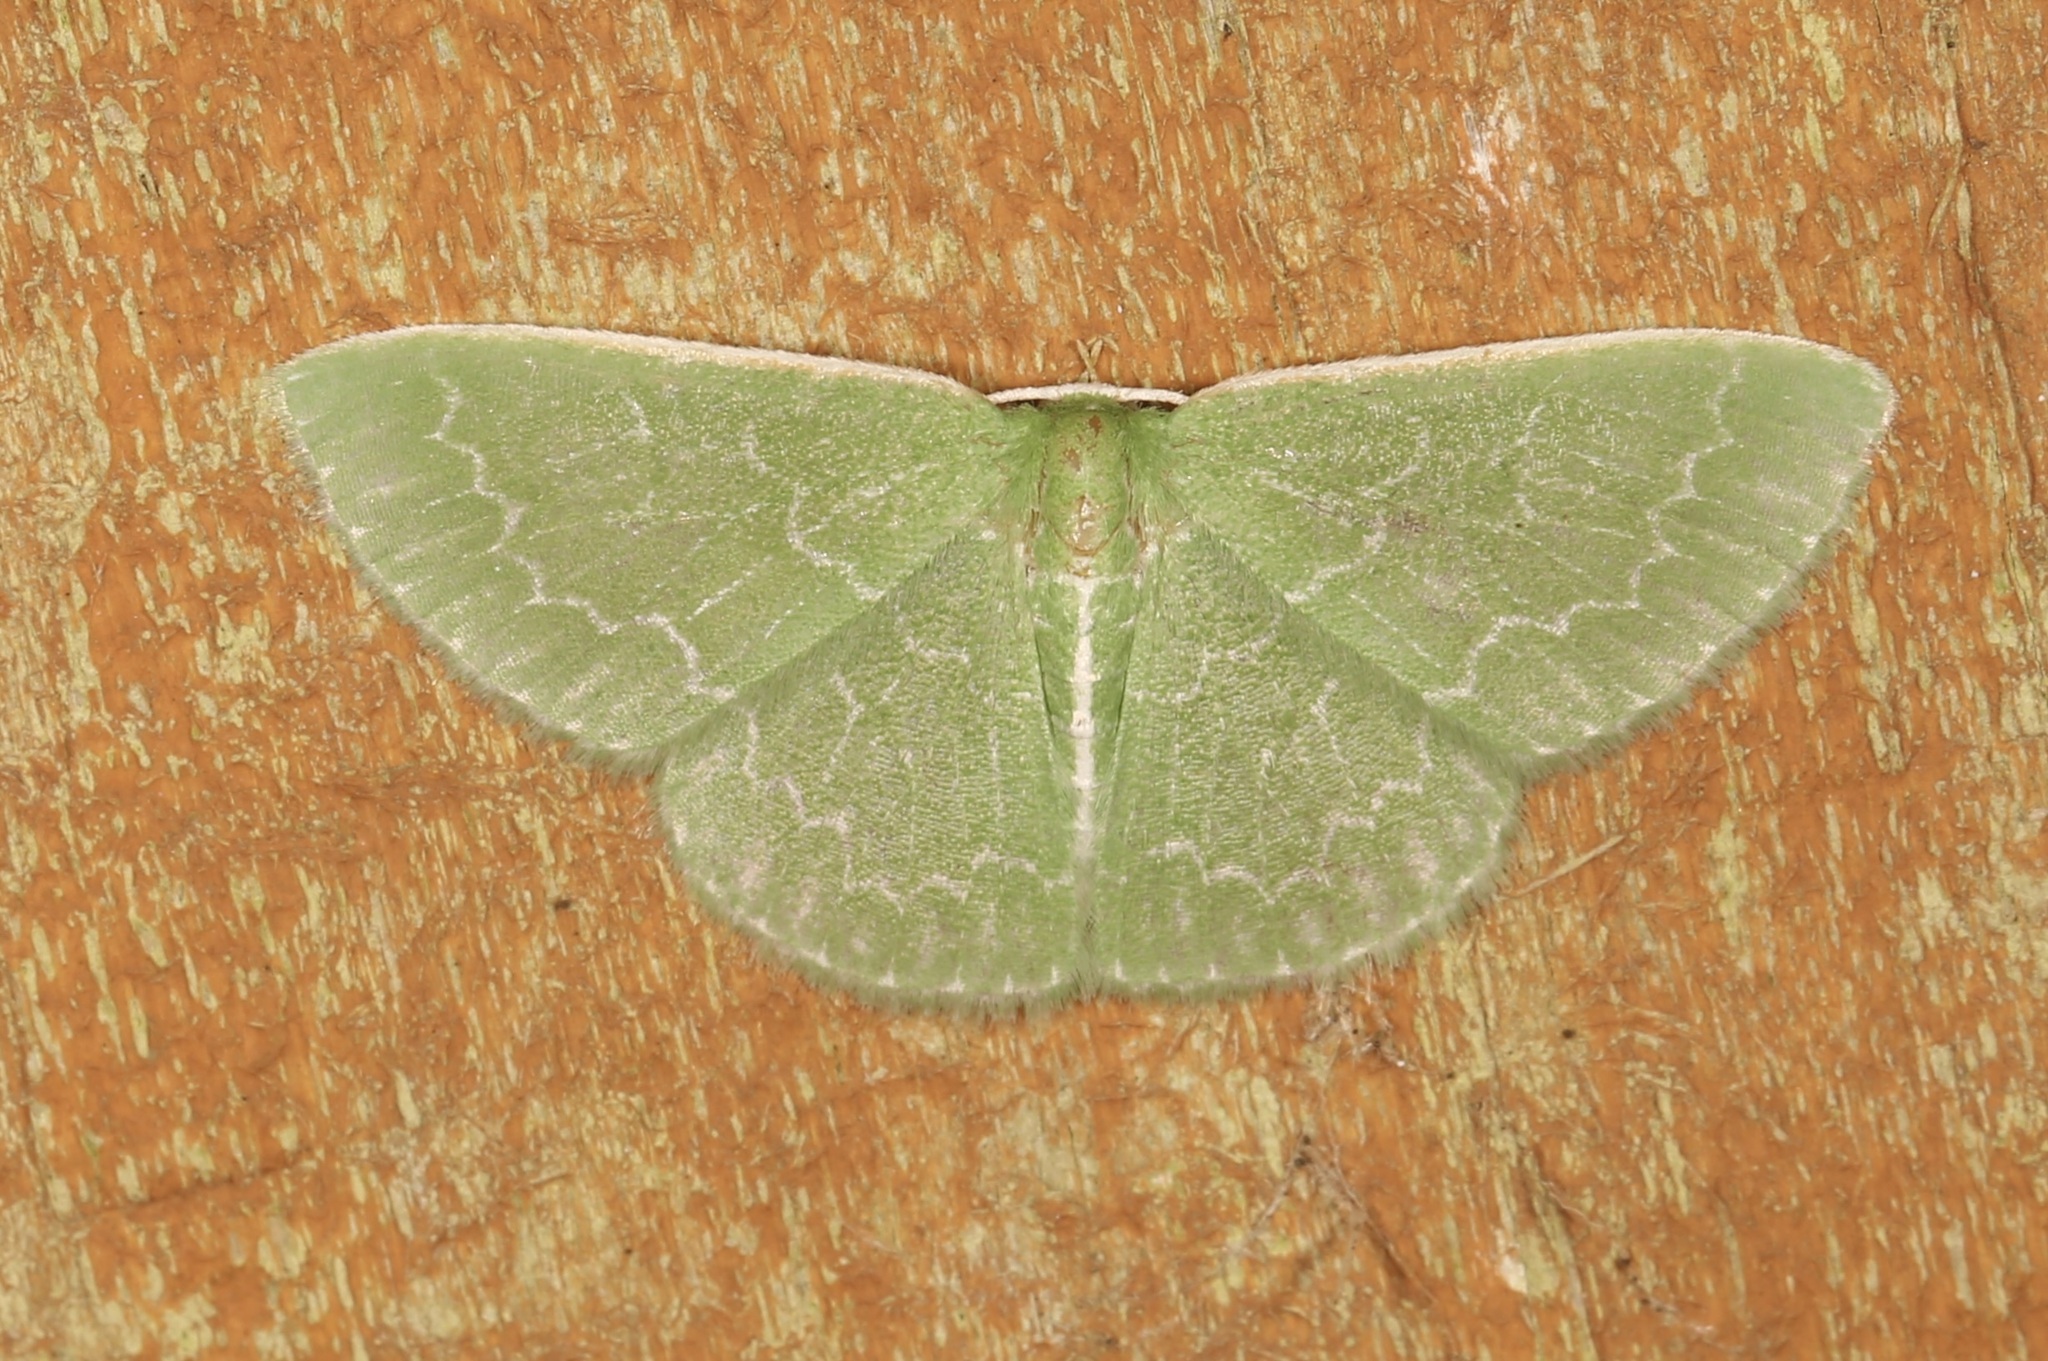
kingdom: Animalia
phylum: Arthropoda
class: Insecta
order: Lepidoptera
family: Geometridae
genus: Synchlora
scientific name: Synchlora frondaria
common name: Southern emerald
